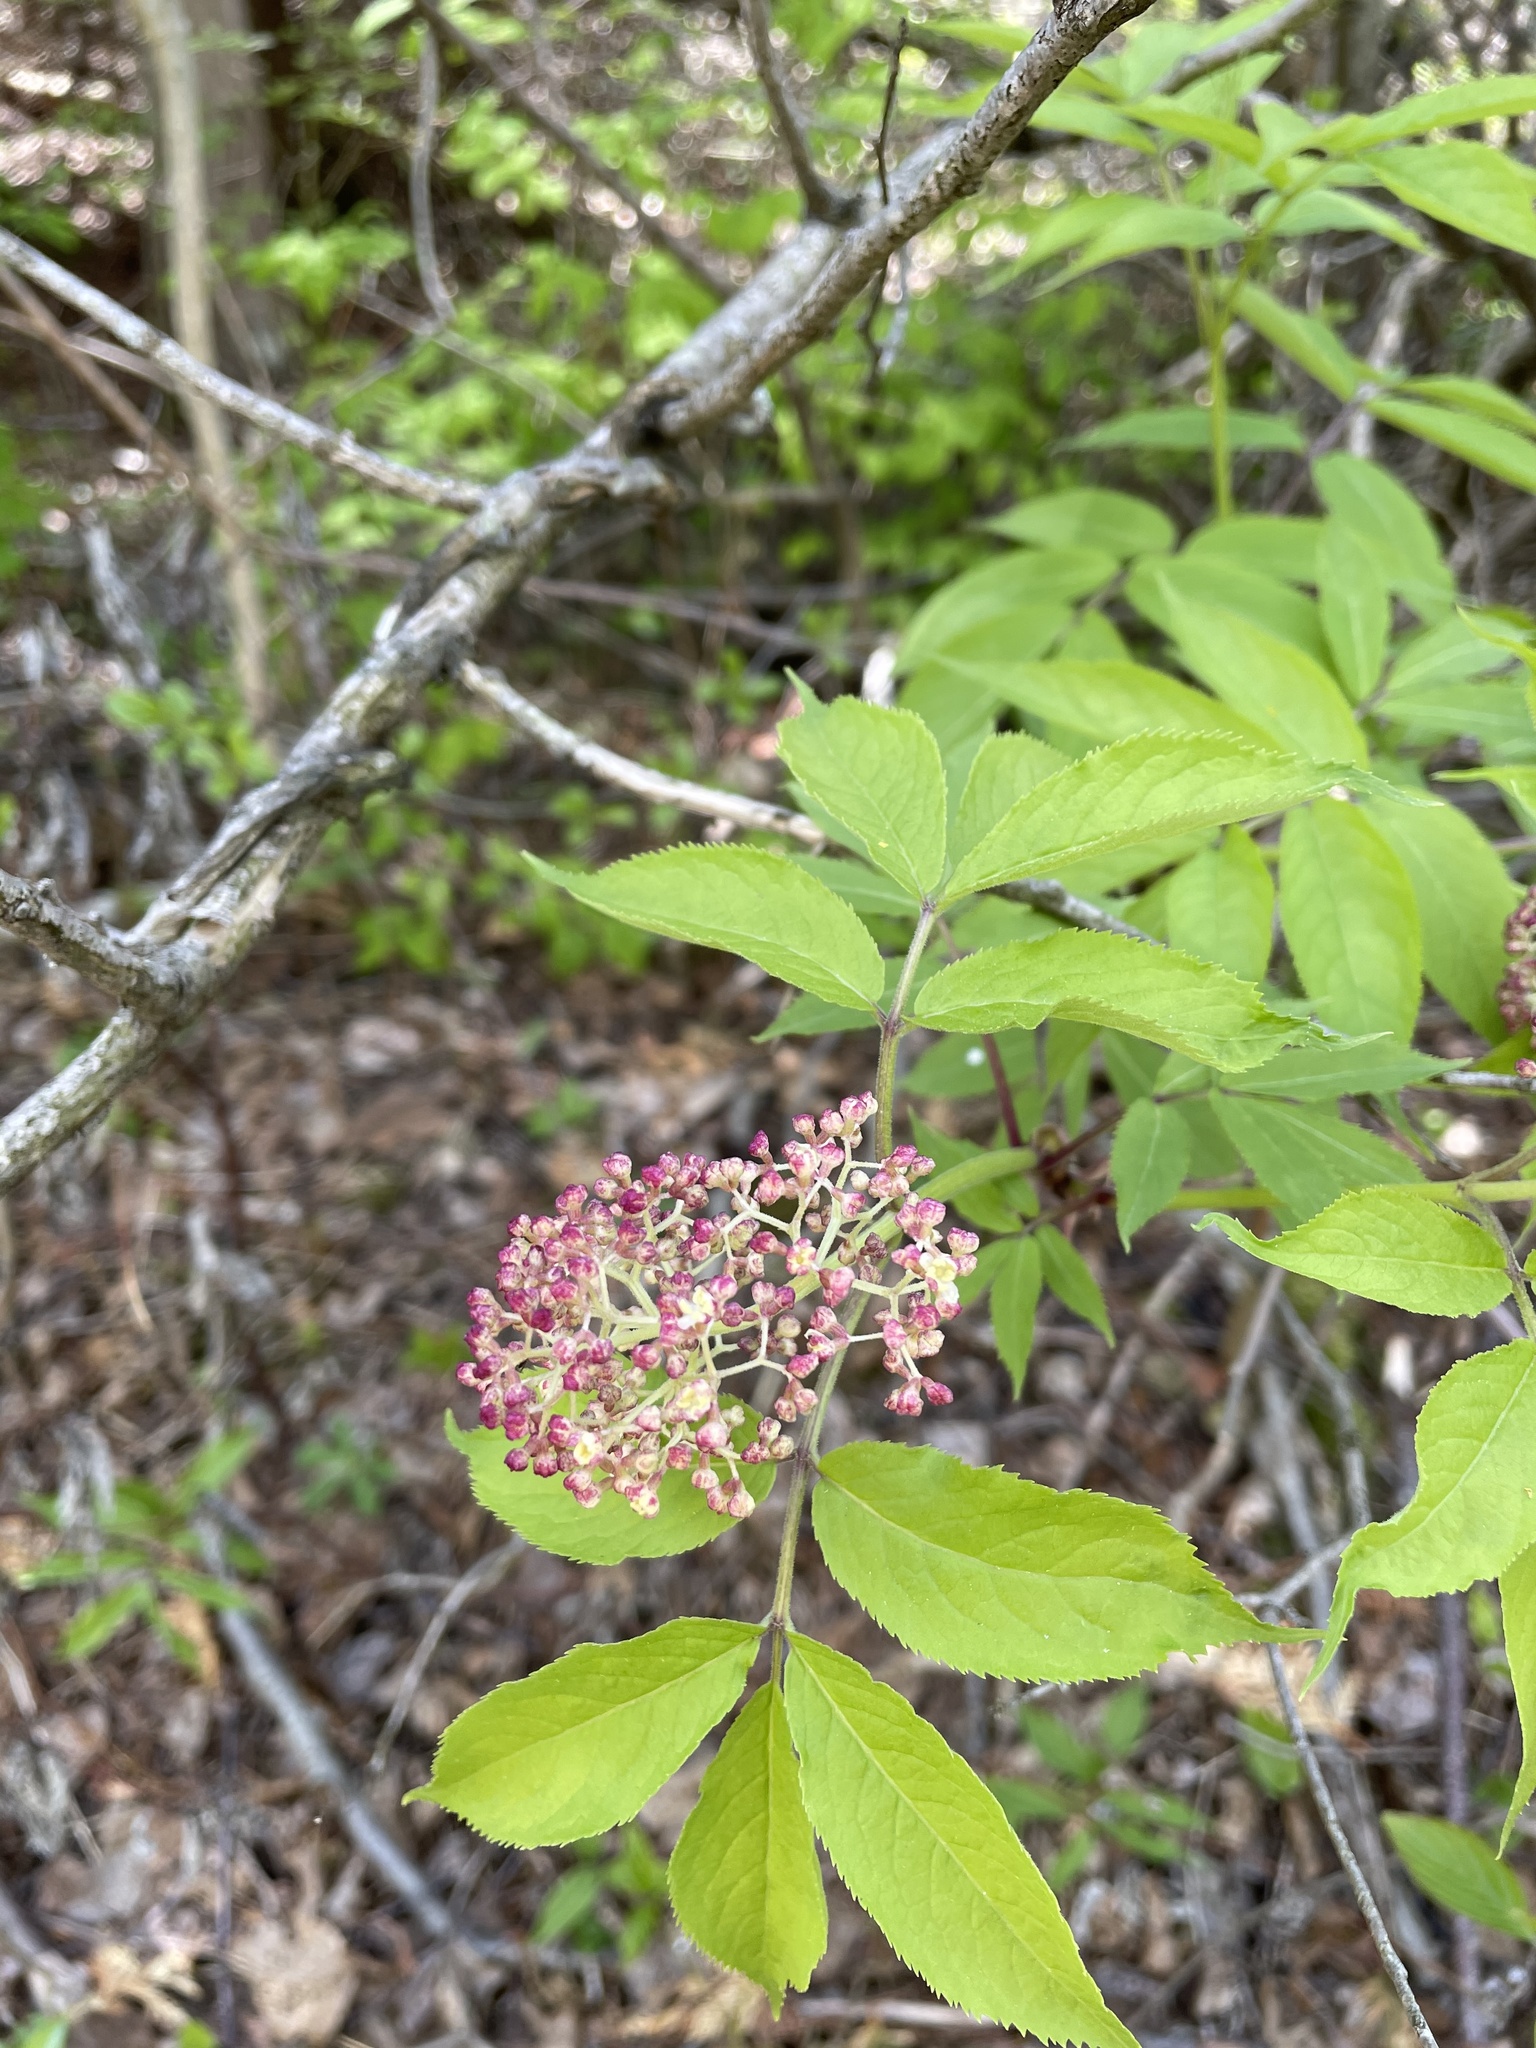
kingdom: Plantae
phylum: Tracheophyta
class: Magnoliopsida
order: Dipsacales
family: Viburnaceae
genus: Sambucus
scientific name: Sambucus racemosa
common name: Red-berried elder
